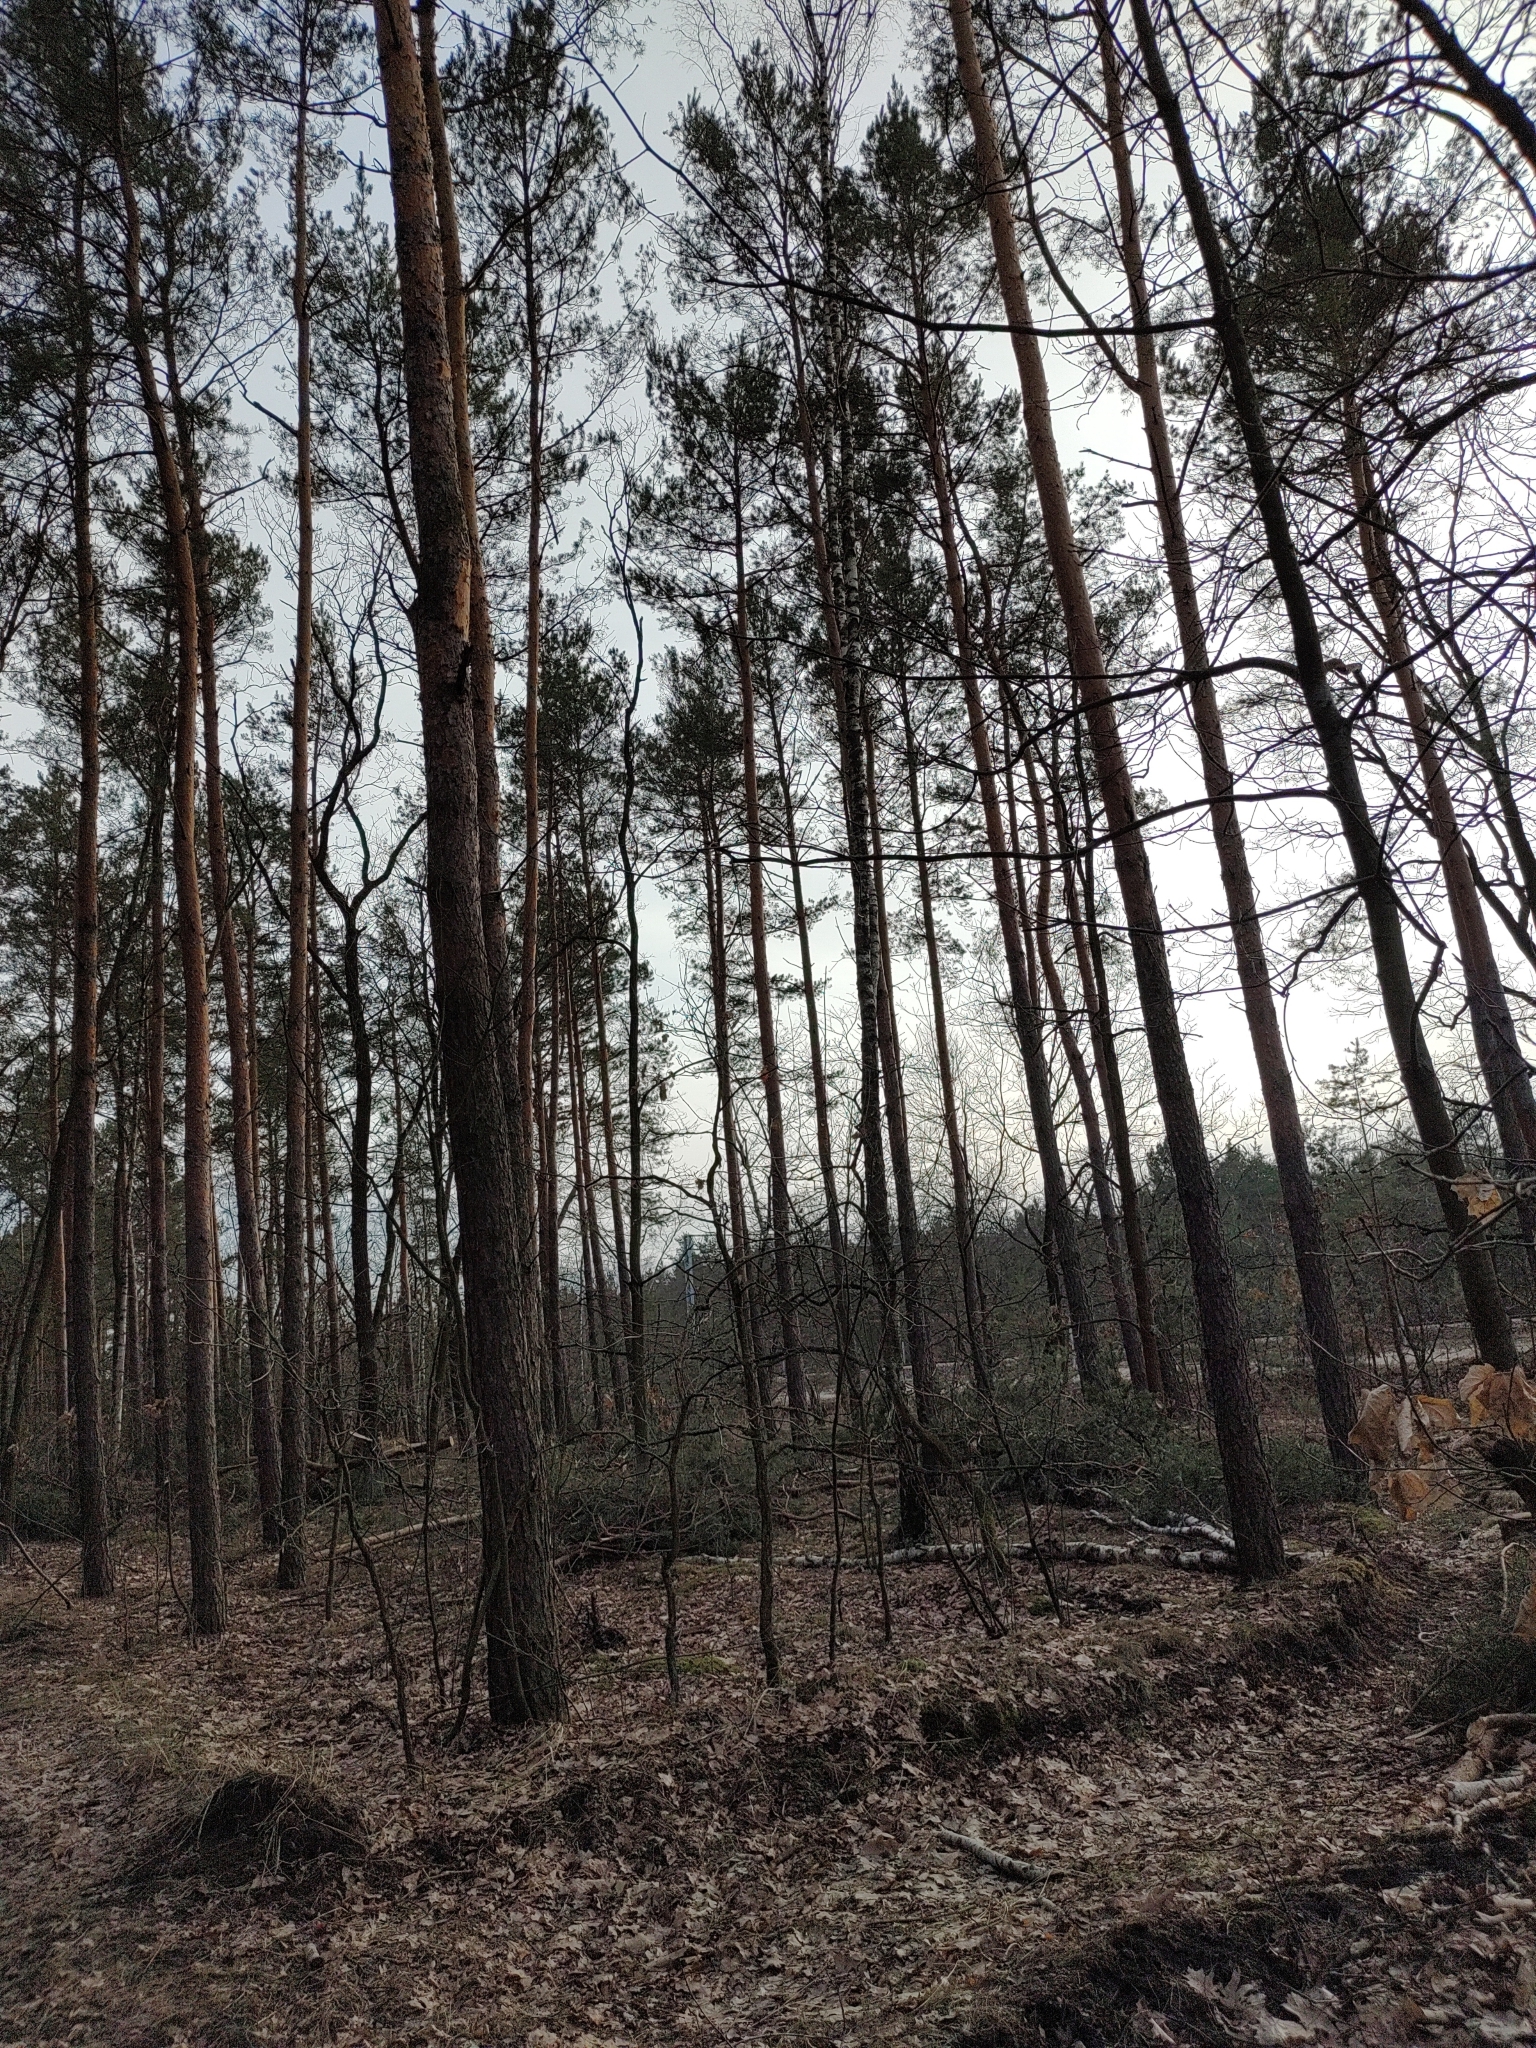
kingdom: Animalia
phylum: Chordata
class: Aves
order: Passeriformes
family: Fringillidae
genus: Spinus
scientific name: Spinus spinus
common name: Eurasian siskin
